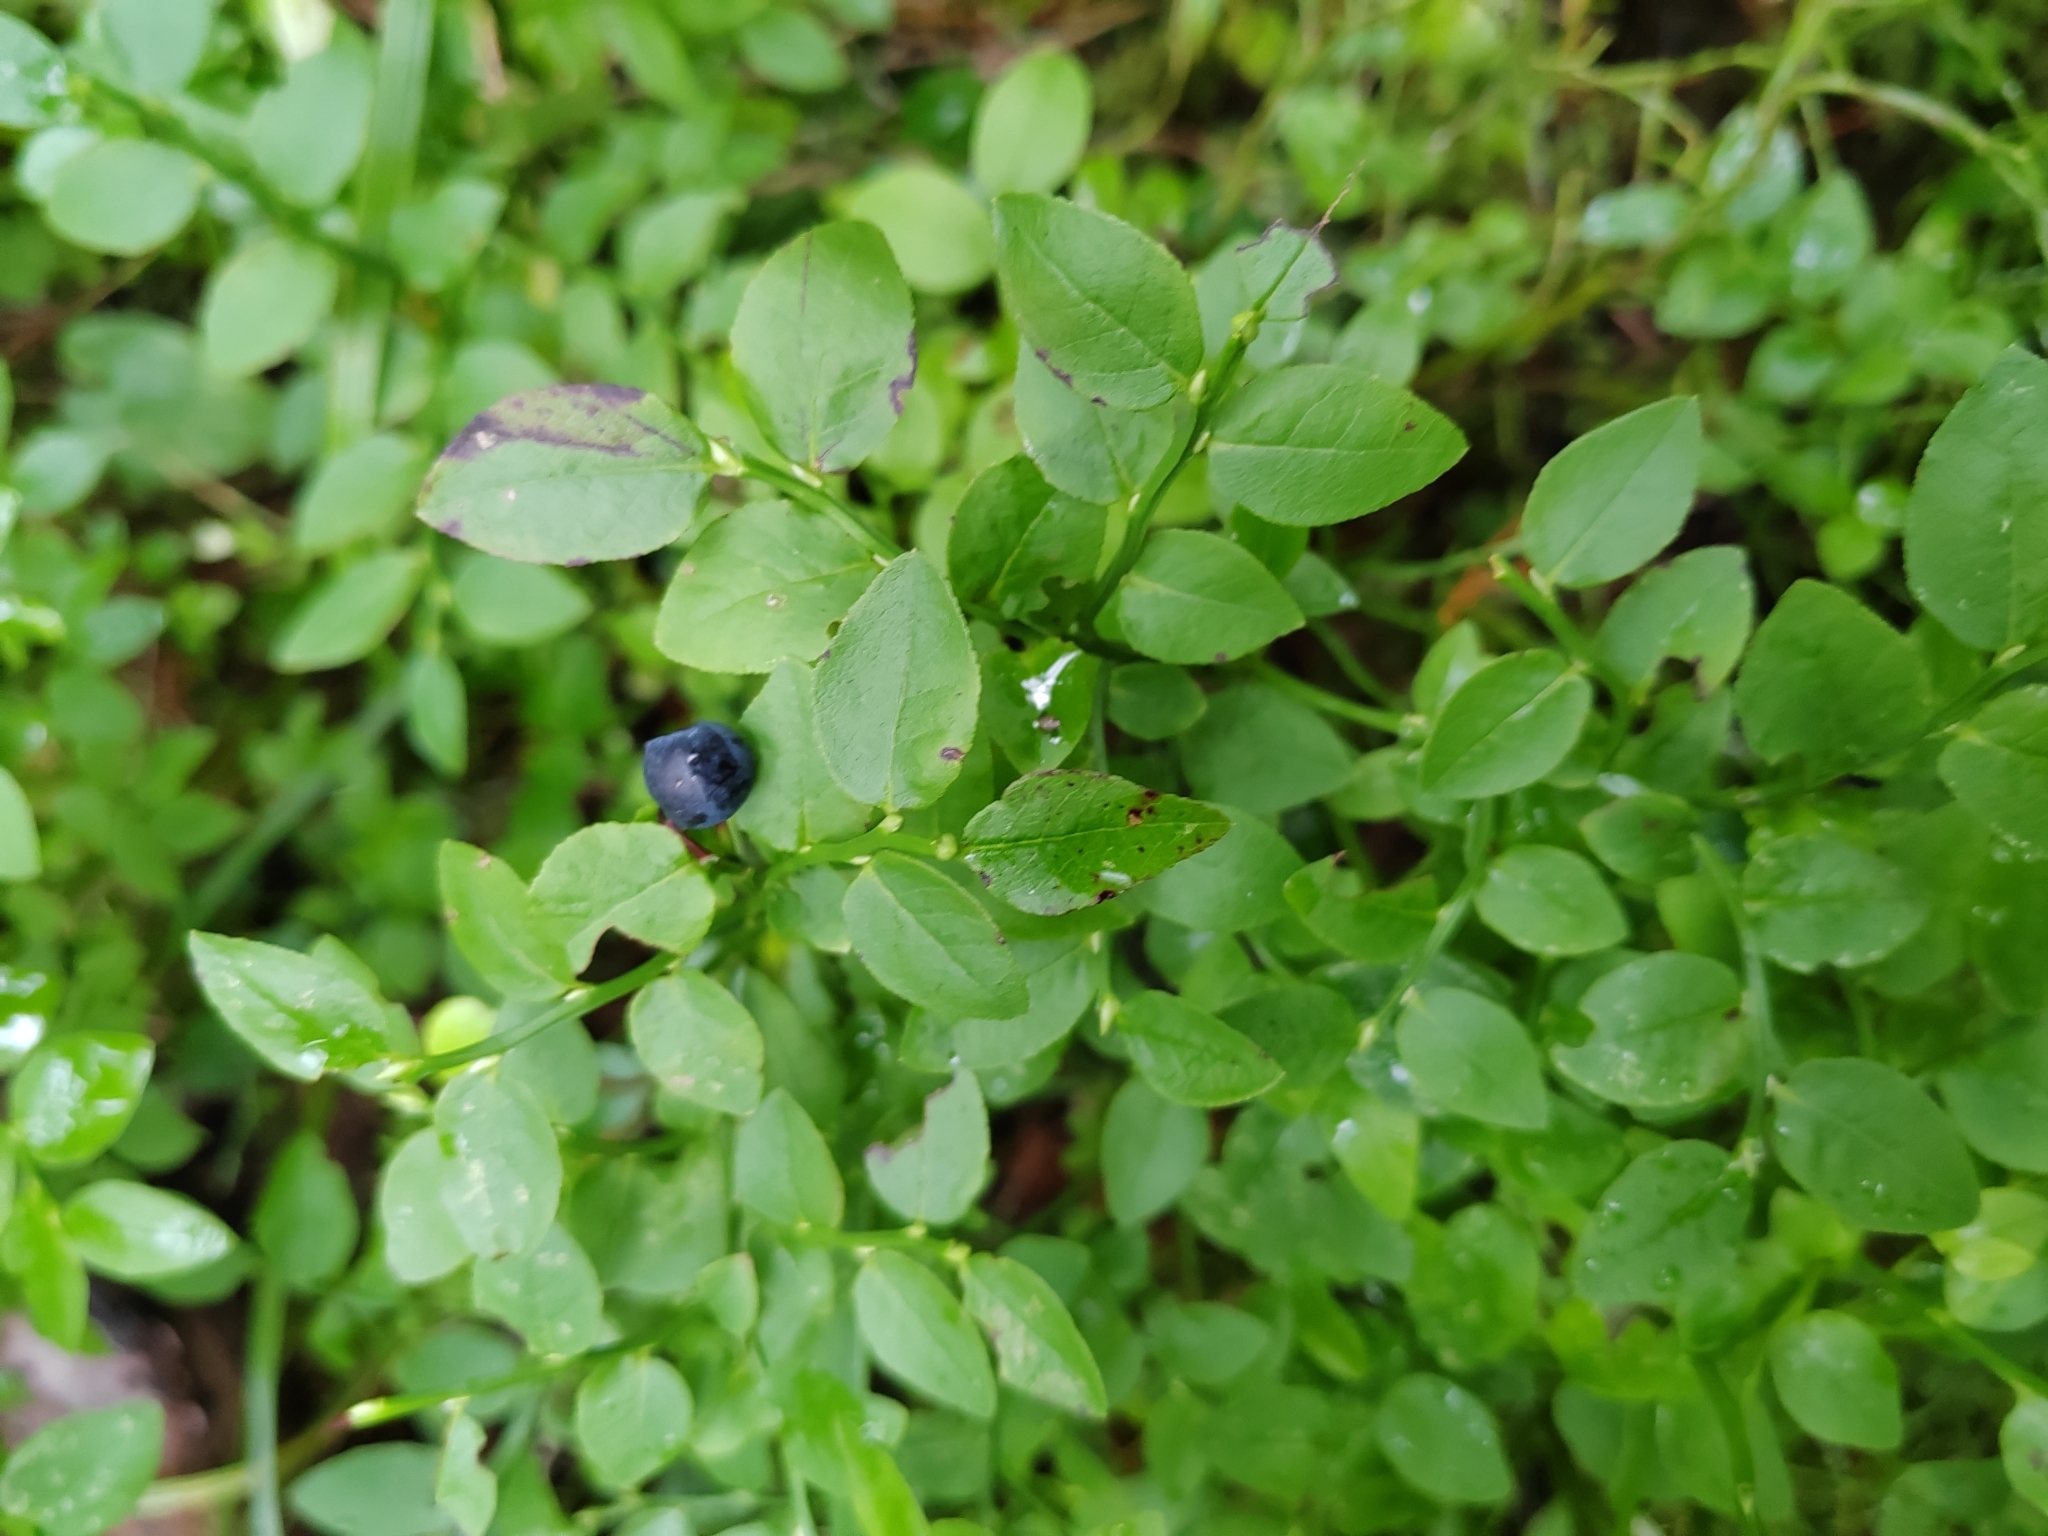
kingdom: Plantae
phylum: Tracheophyta
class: Magnoliopsida
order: Ericales
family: Ericaceae
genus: Vaccinium
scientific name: Vaccinium myrtillus
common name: Bilberry
